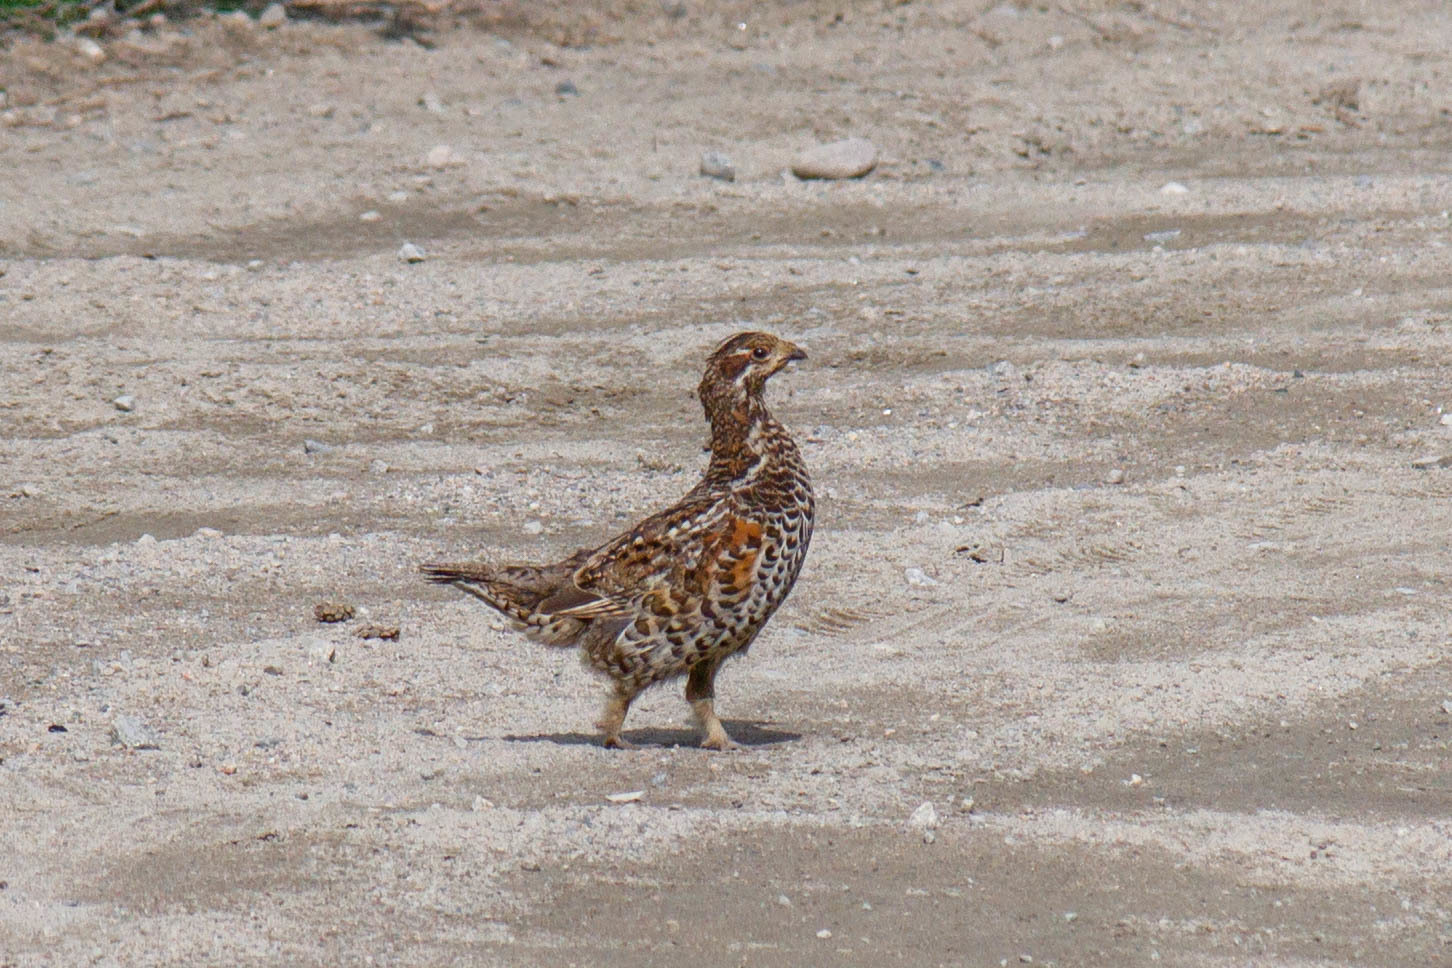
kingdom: Animalia
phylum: Chordata
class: Aves
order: Galliformes
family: Phasianidae
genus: Tetrastes
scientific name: Tetrastes bonasia
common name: Hazel grouse
